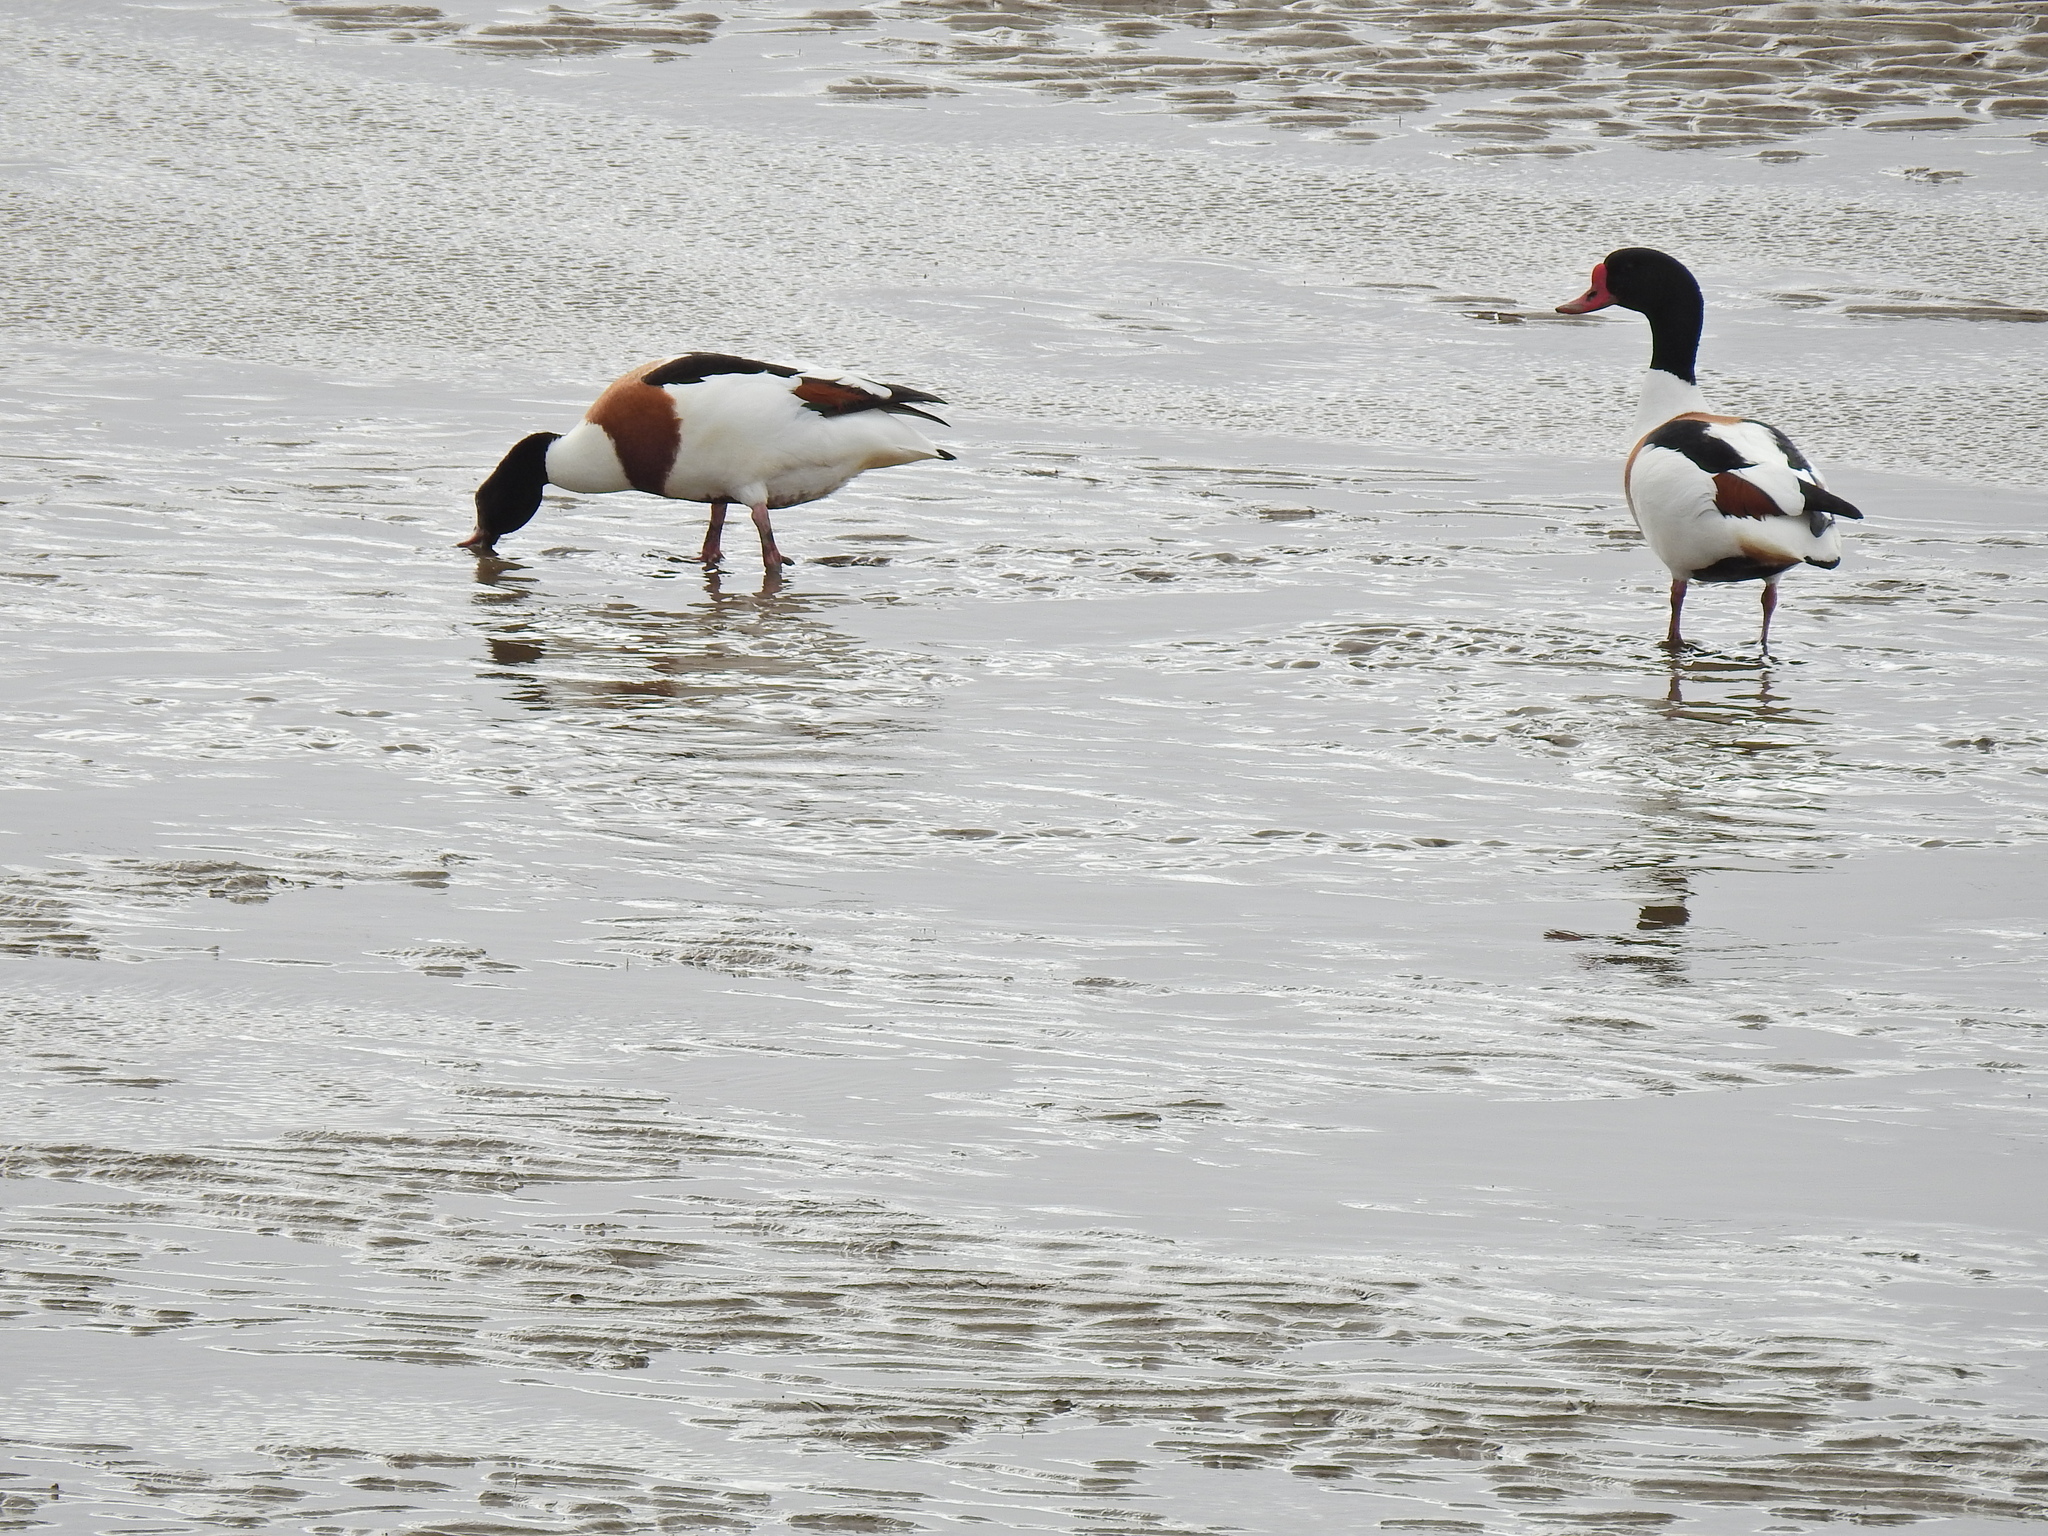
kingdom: Animalia
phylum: Chordata
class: Aves
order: Anseriformes
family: Anatidae
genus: Tadorna
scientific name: Tadorna tadorna
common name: Common shelduck
